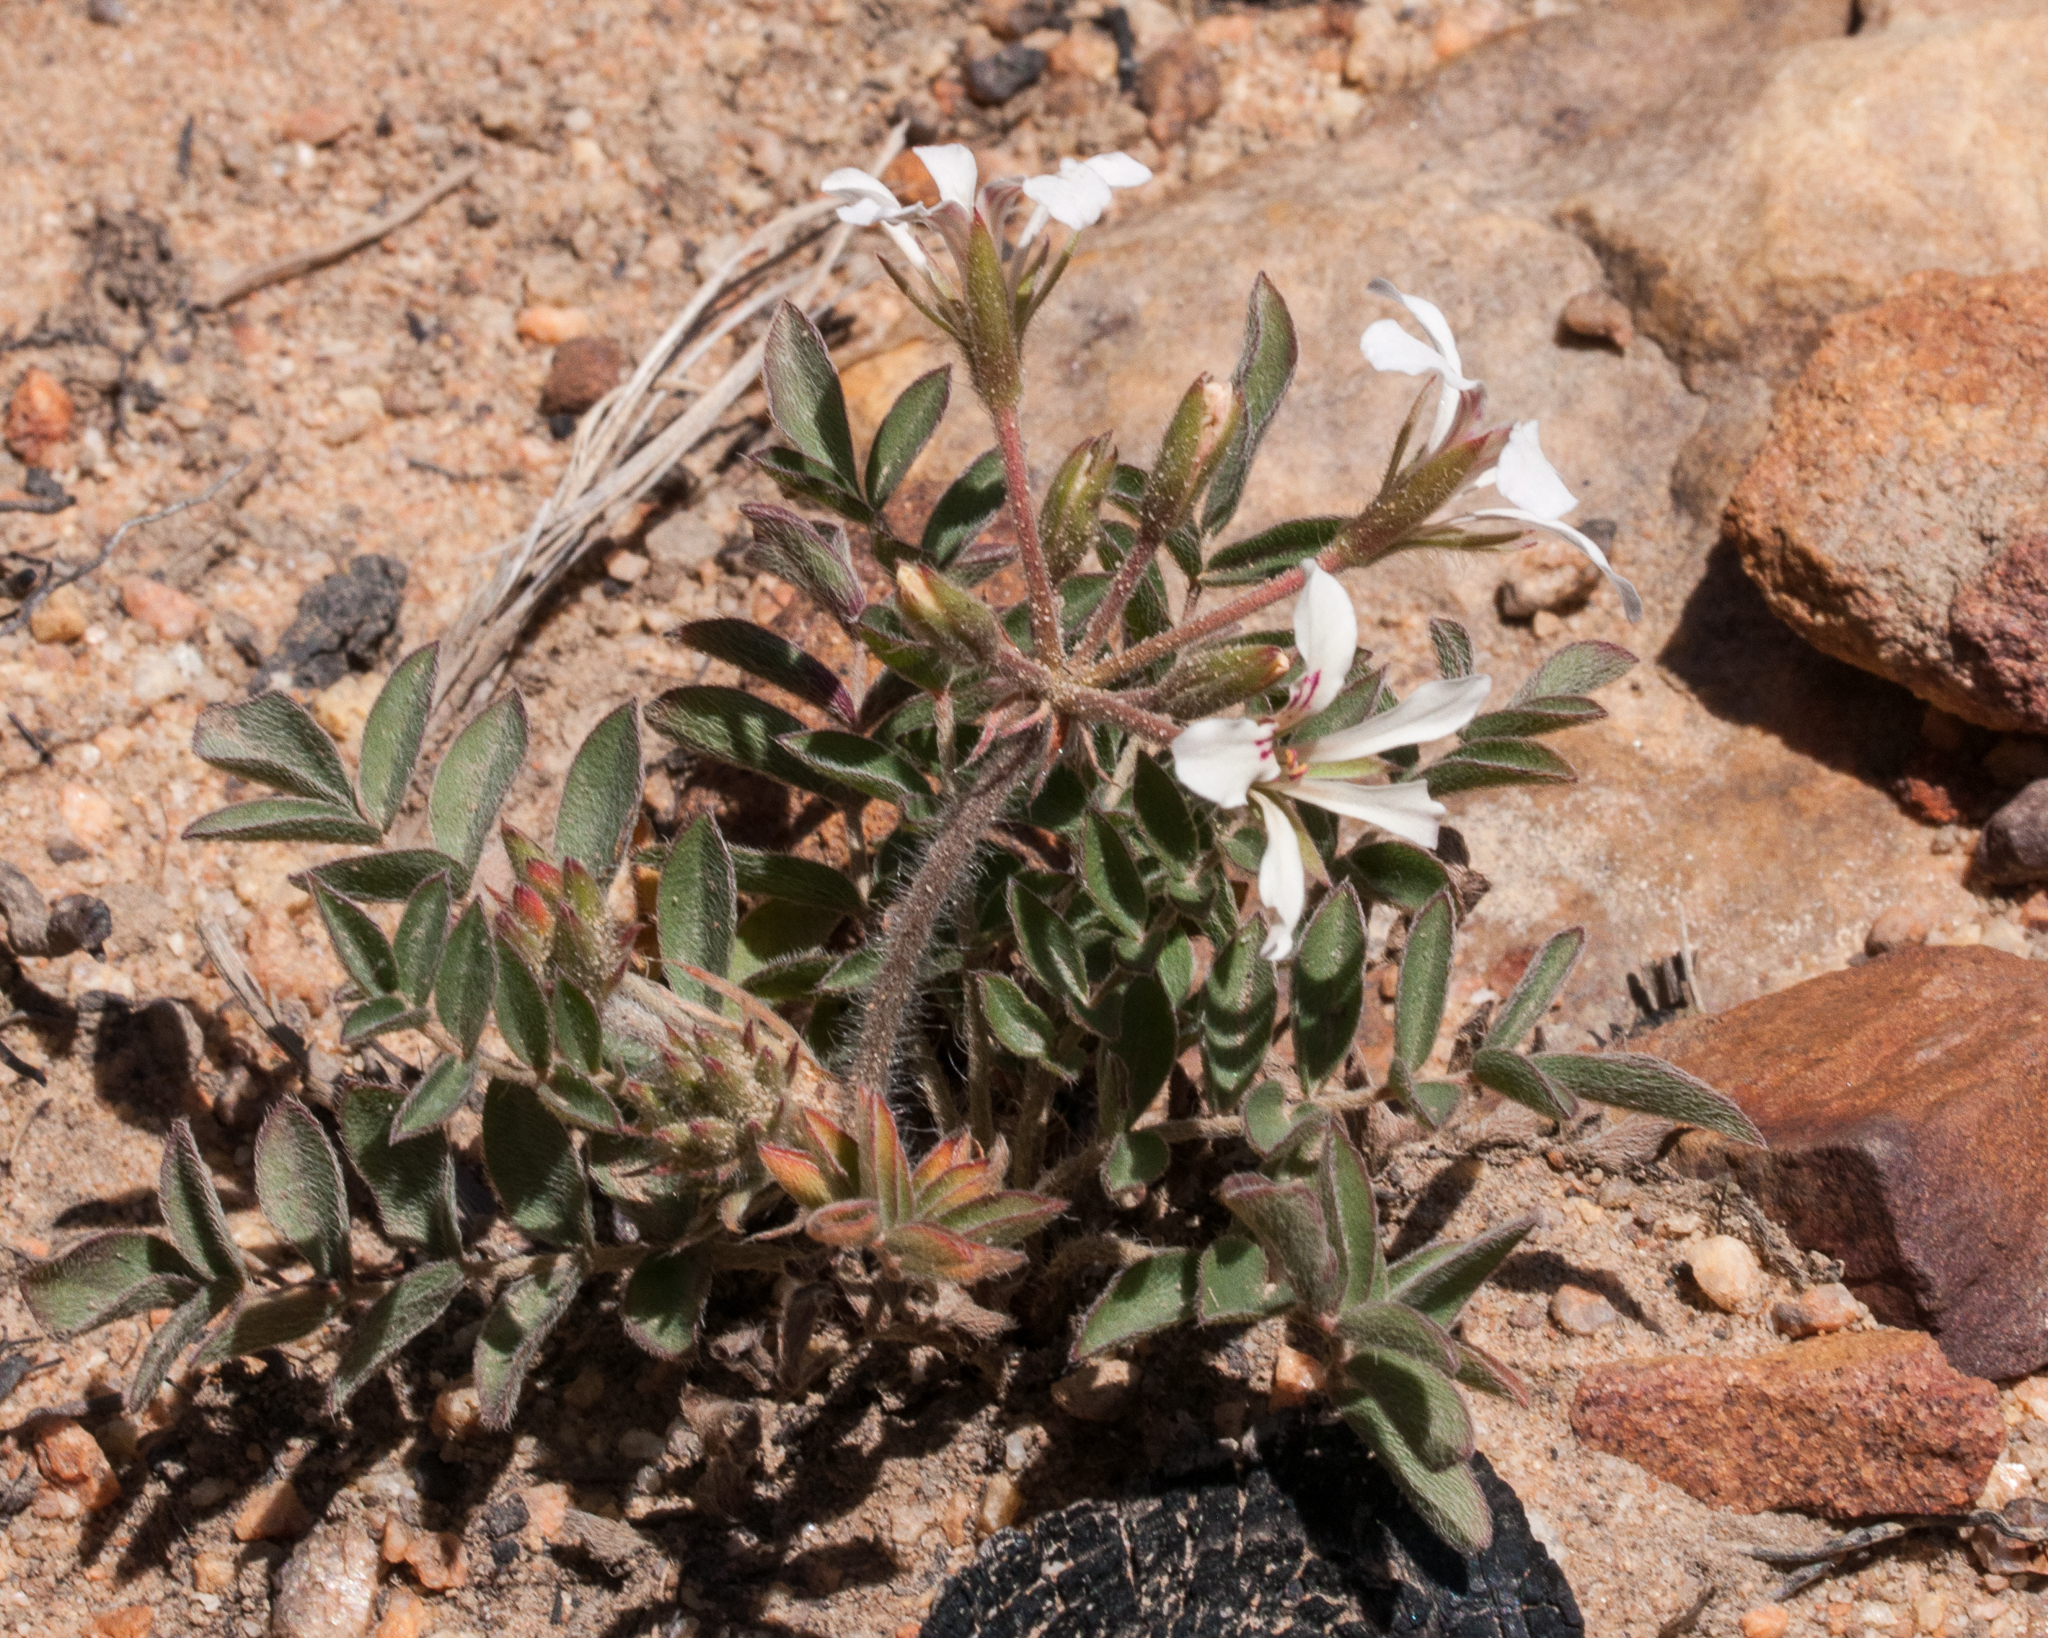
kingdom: Plantae
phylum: Tracheophyta
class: Magnoliopsida
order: Geraniales
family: Geraniaceae
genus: Pelargonium
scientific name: Pelargonium trifoliolatum
